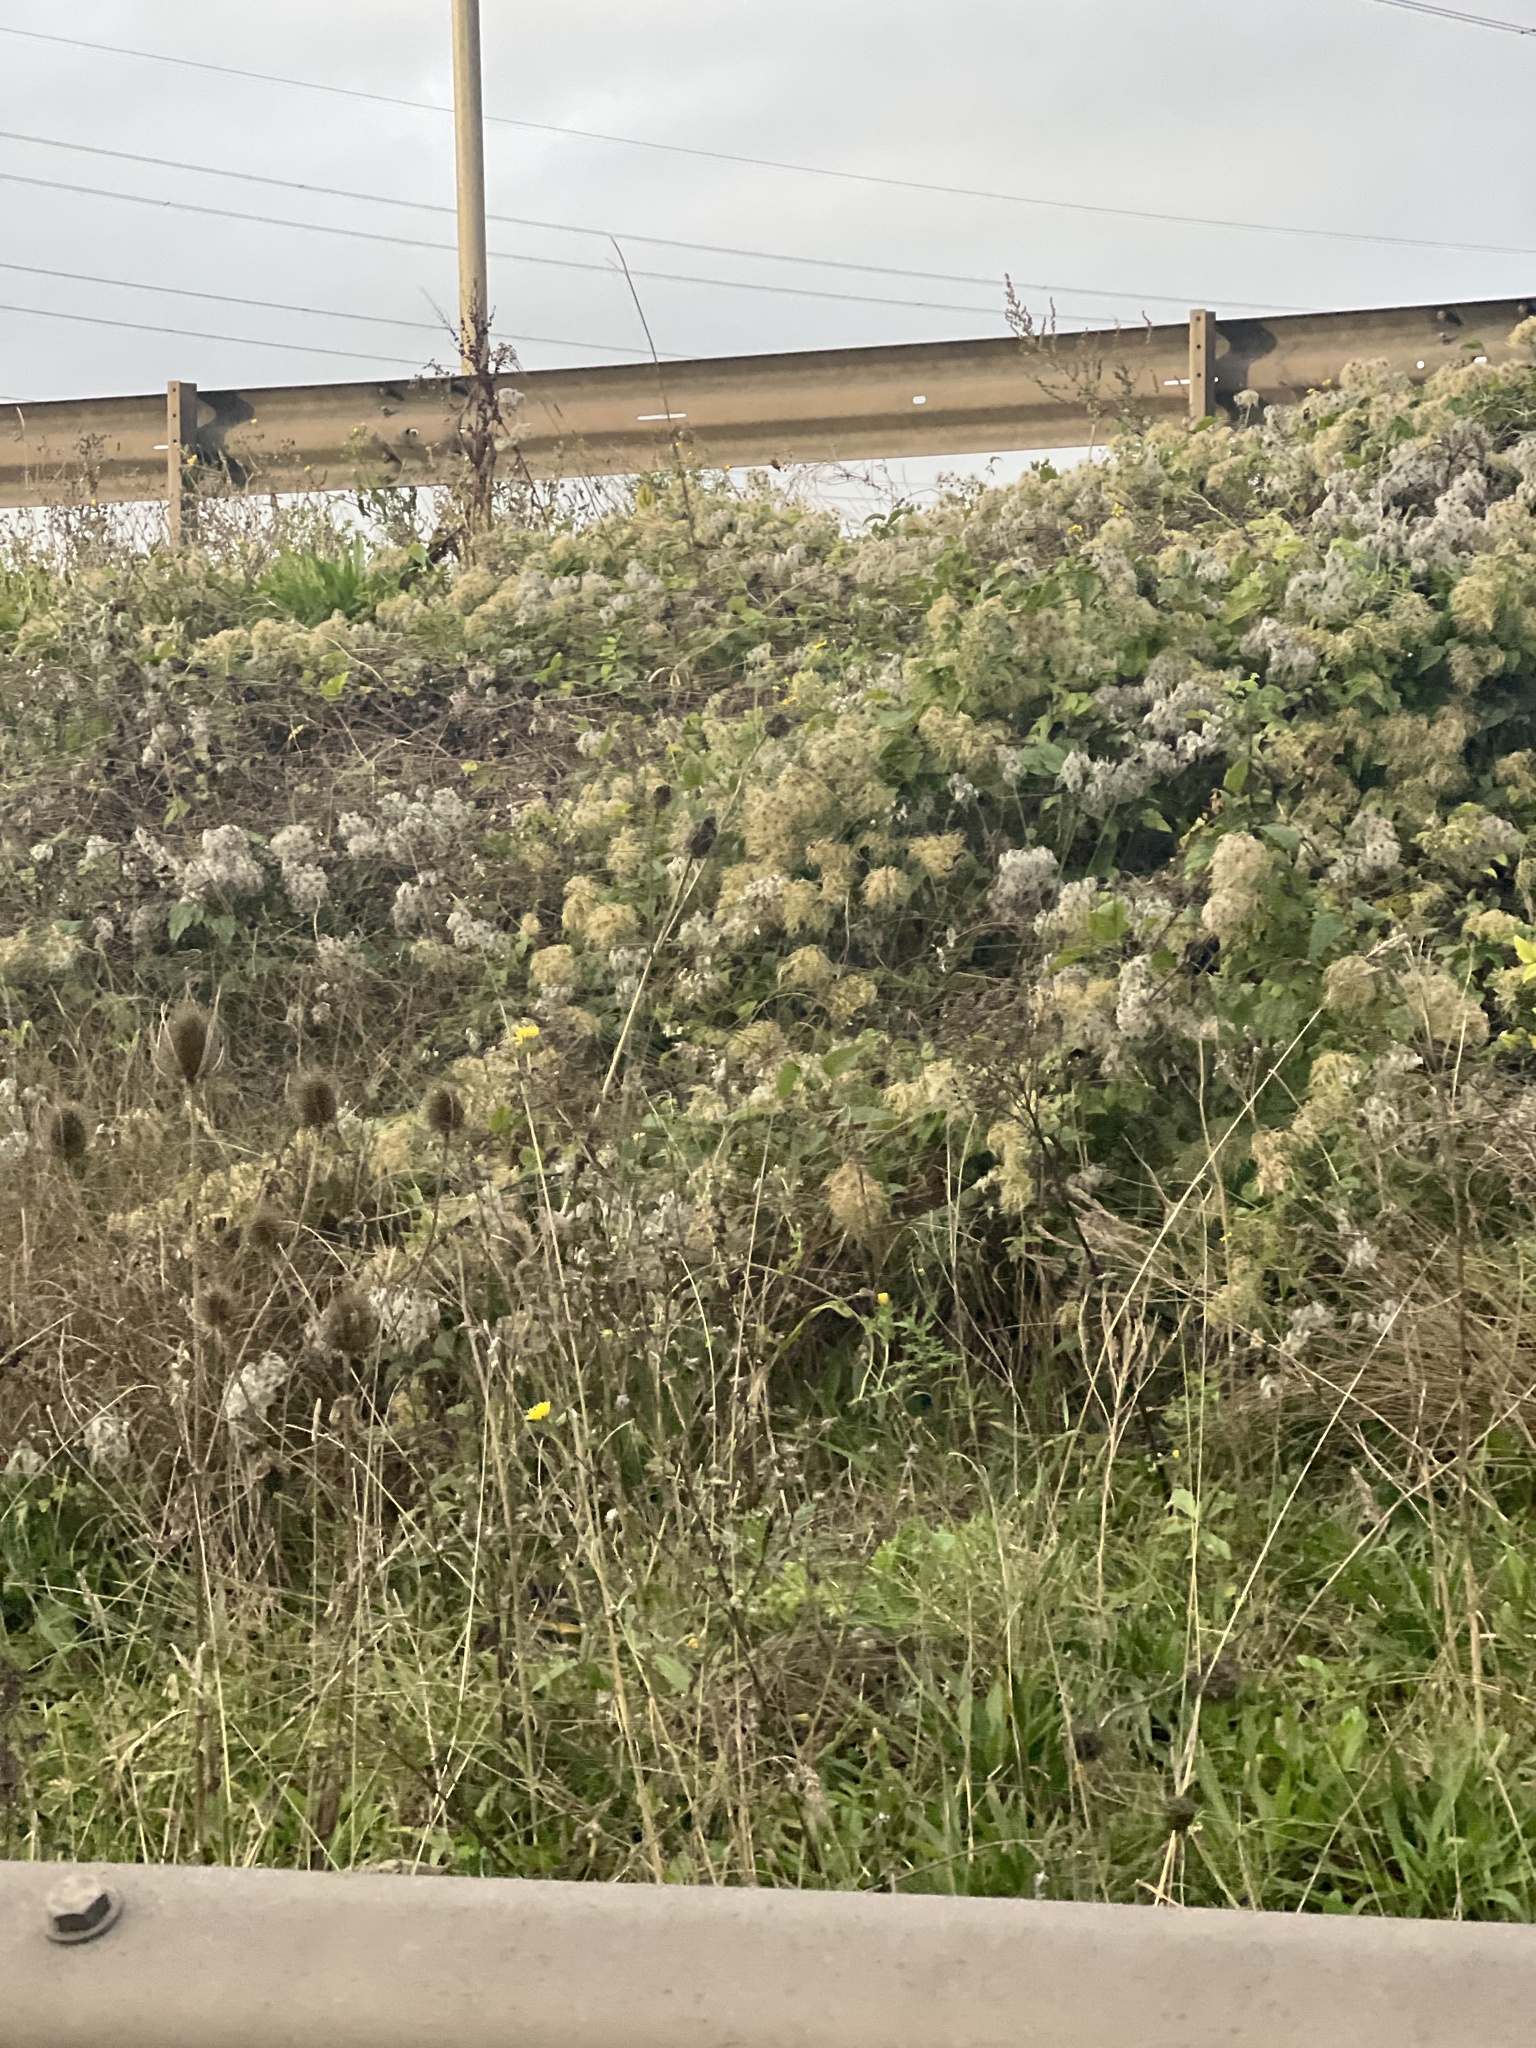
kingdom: Plantae
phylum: Tracheophyta
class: Magnoliopsida
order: Ranunculales
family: Ranunculaceae
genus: Clematis
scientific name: Clematis vitalba
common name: Evergreen clematis
